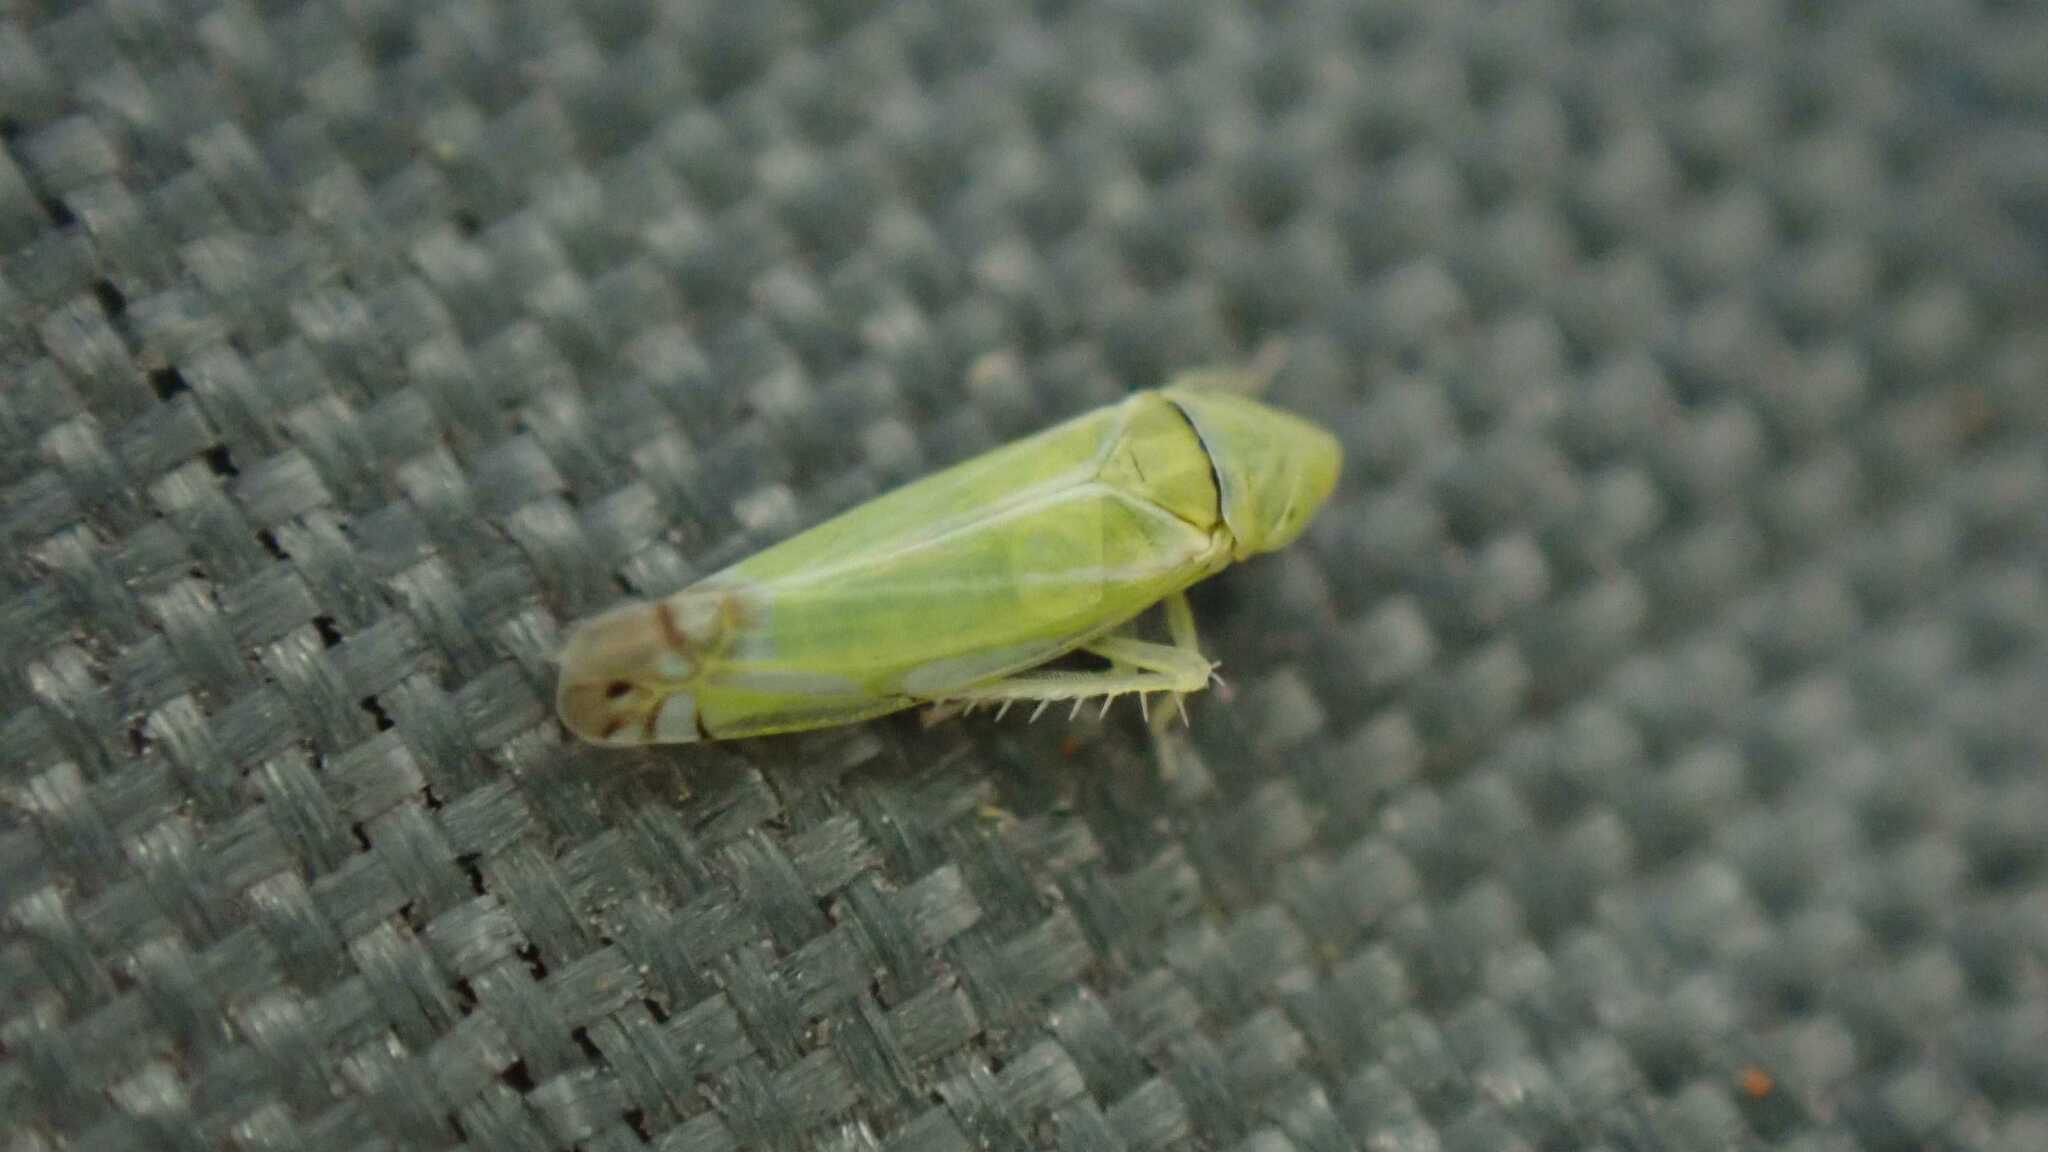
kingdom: Animalia
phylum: Arthropoda
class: Insecta
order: Hemiptera
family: Cicadellidae
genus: Zyginella
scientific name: Zyginella pulchra
